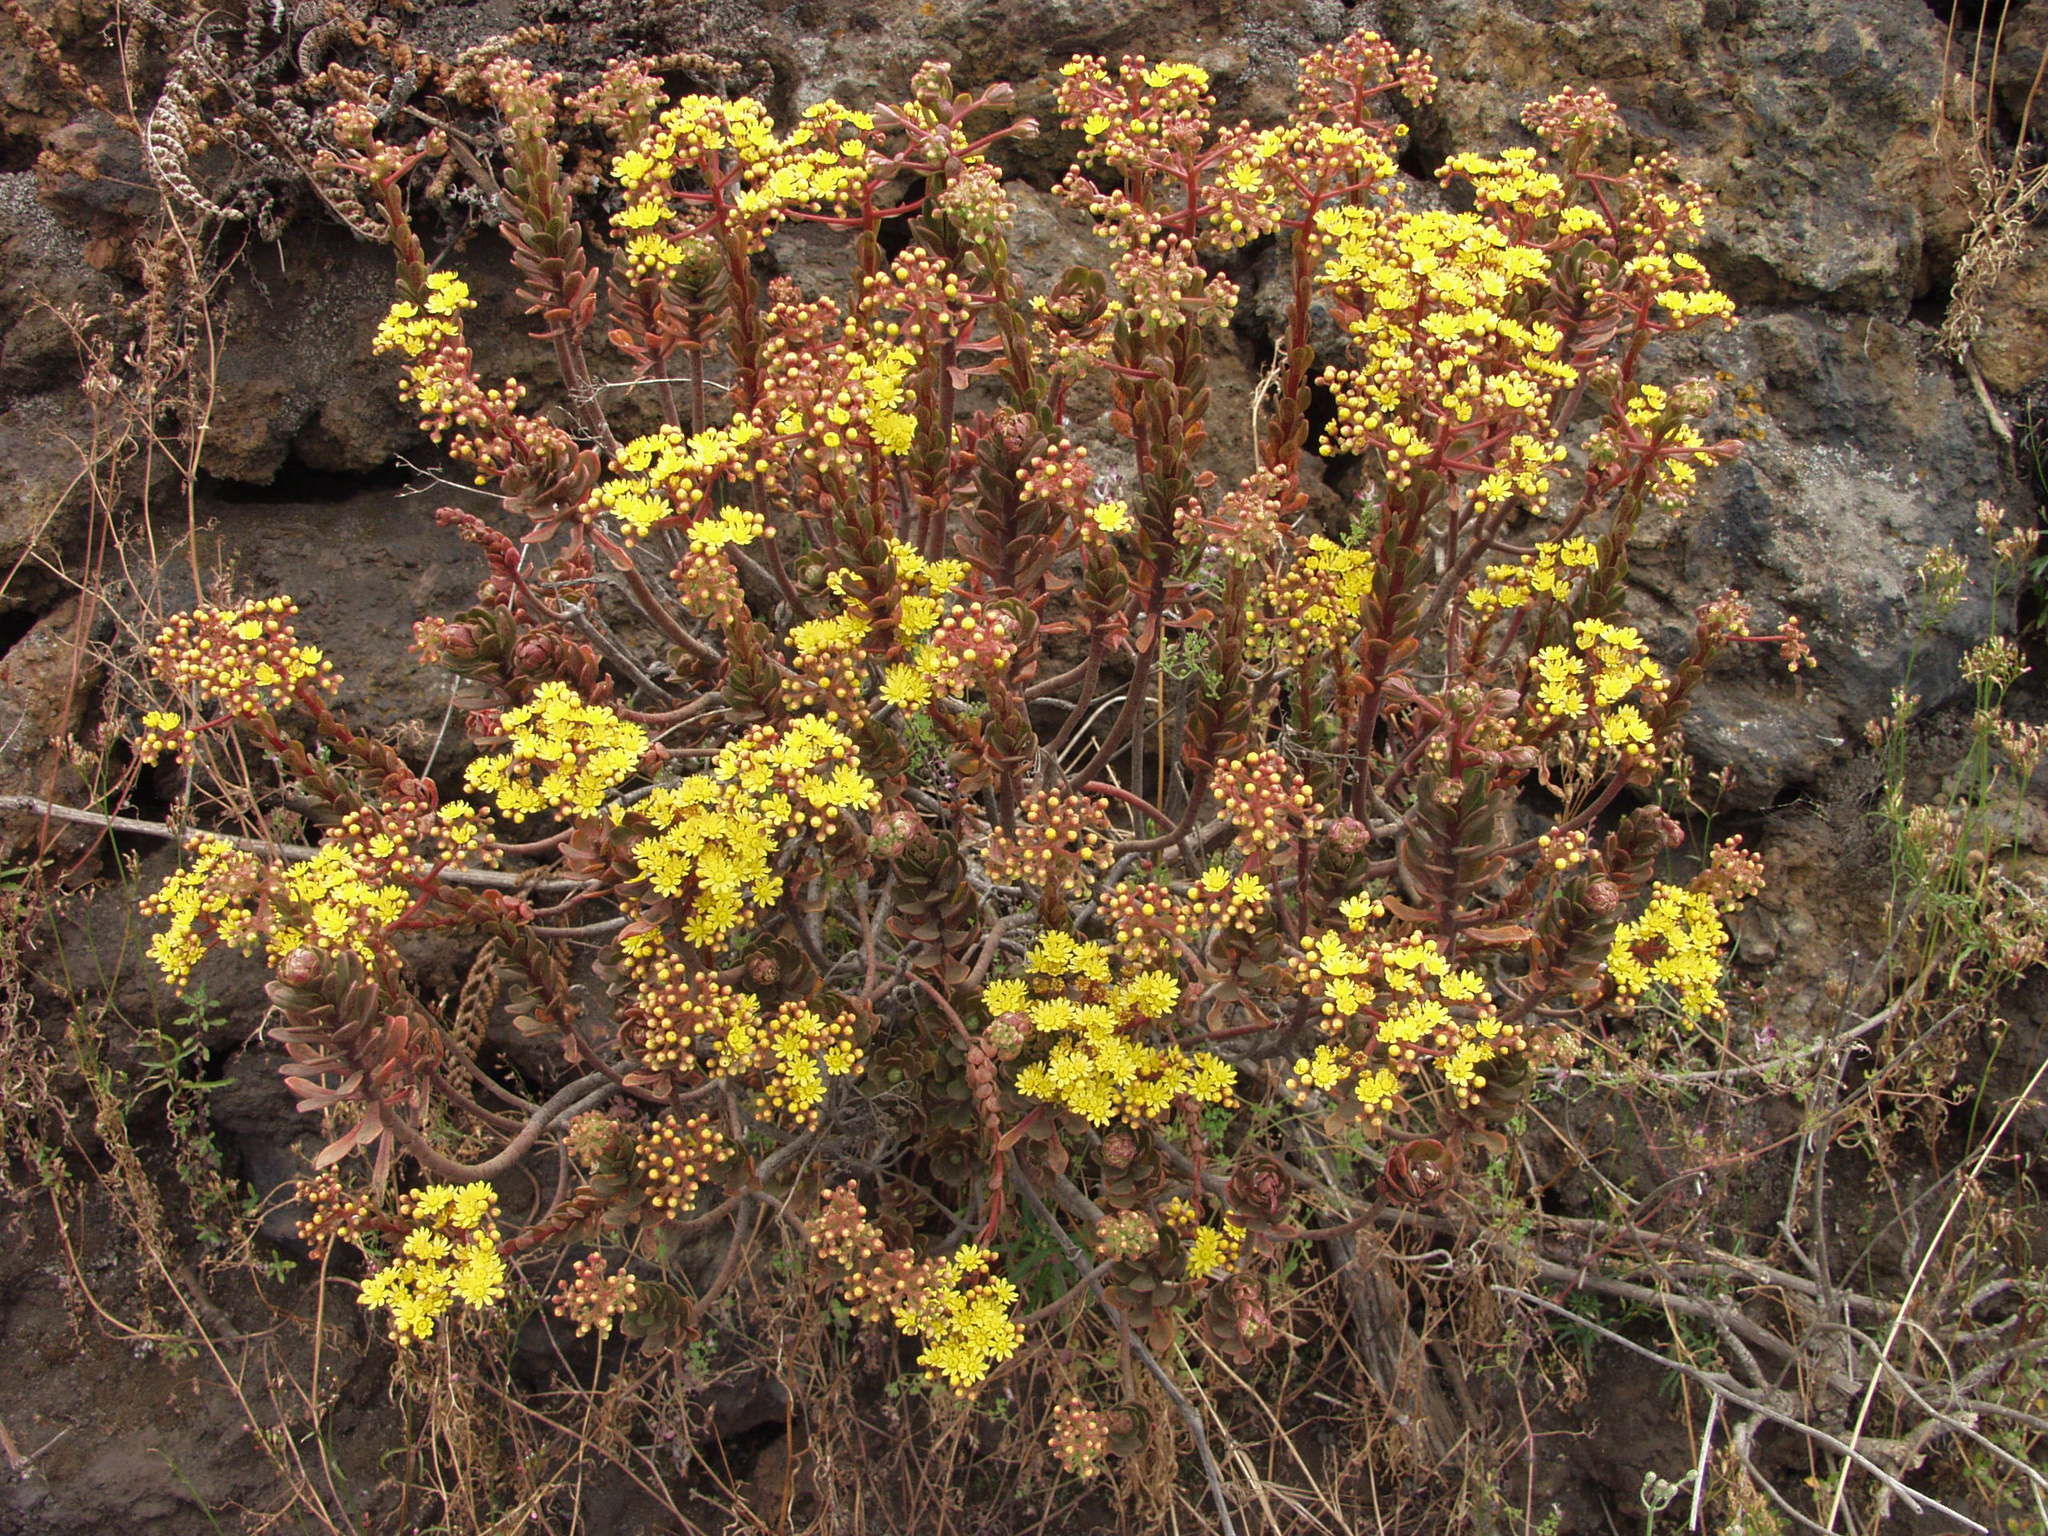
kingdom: Plantae
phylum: Tracheophyta
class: Magnoliopsida
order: Saxifragales
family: Crassulaceae
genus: Aeonium
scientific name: Aeonium spathulatum
